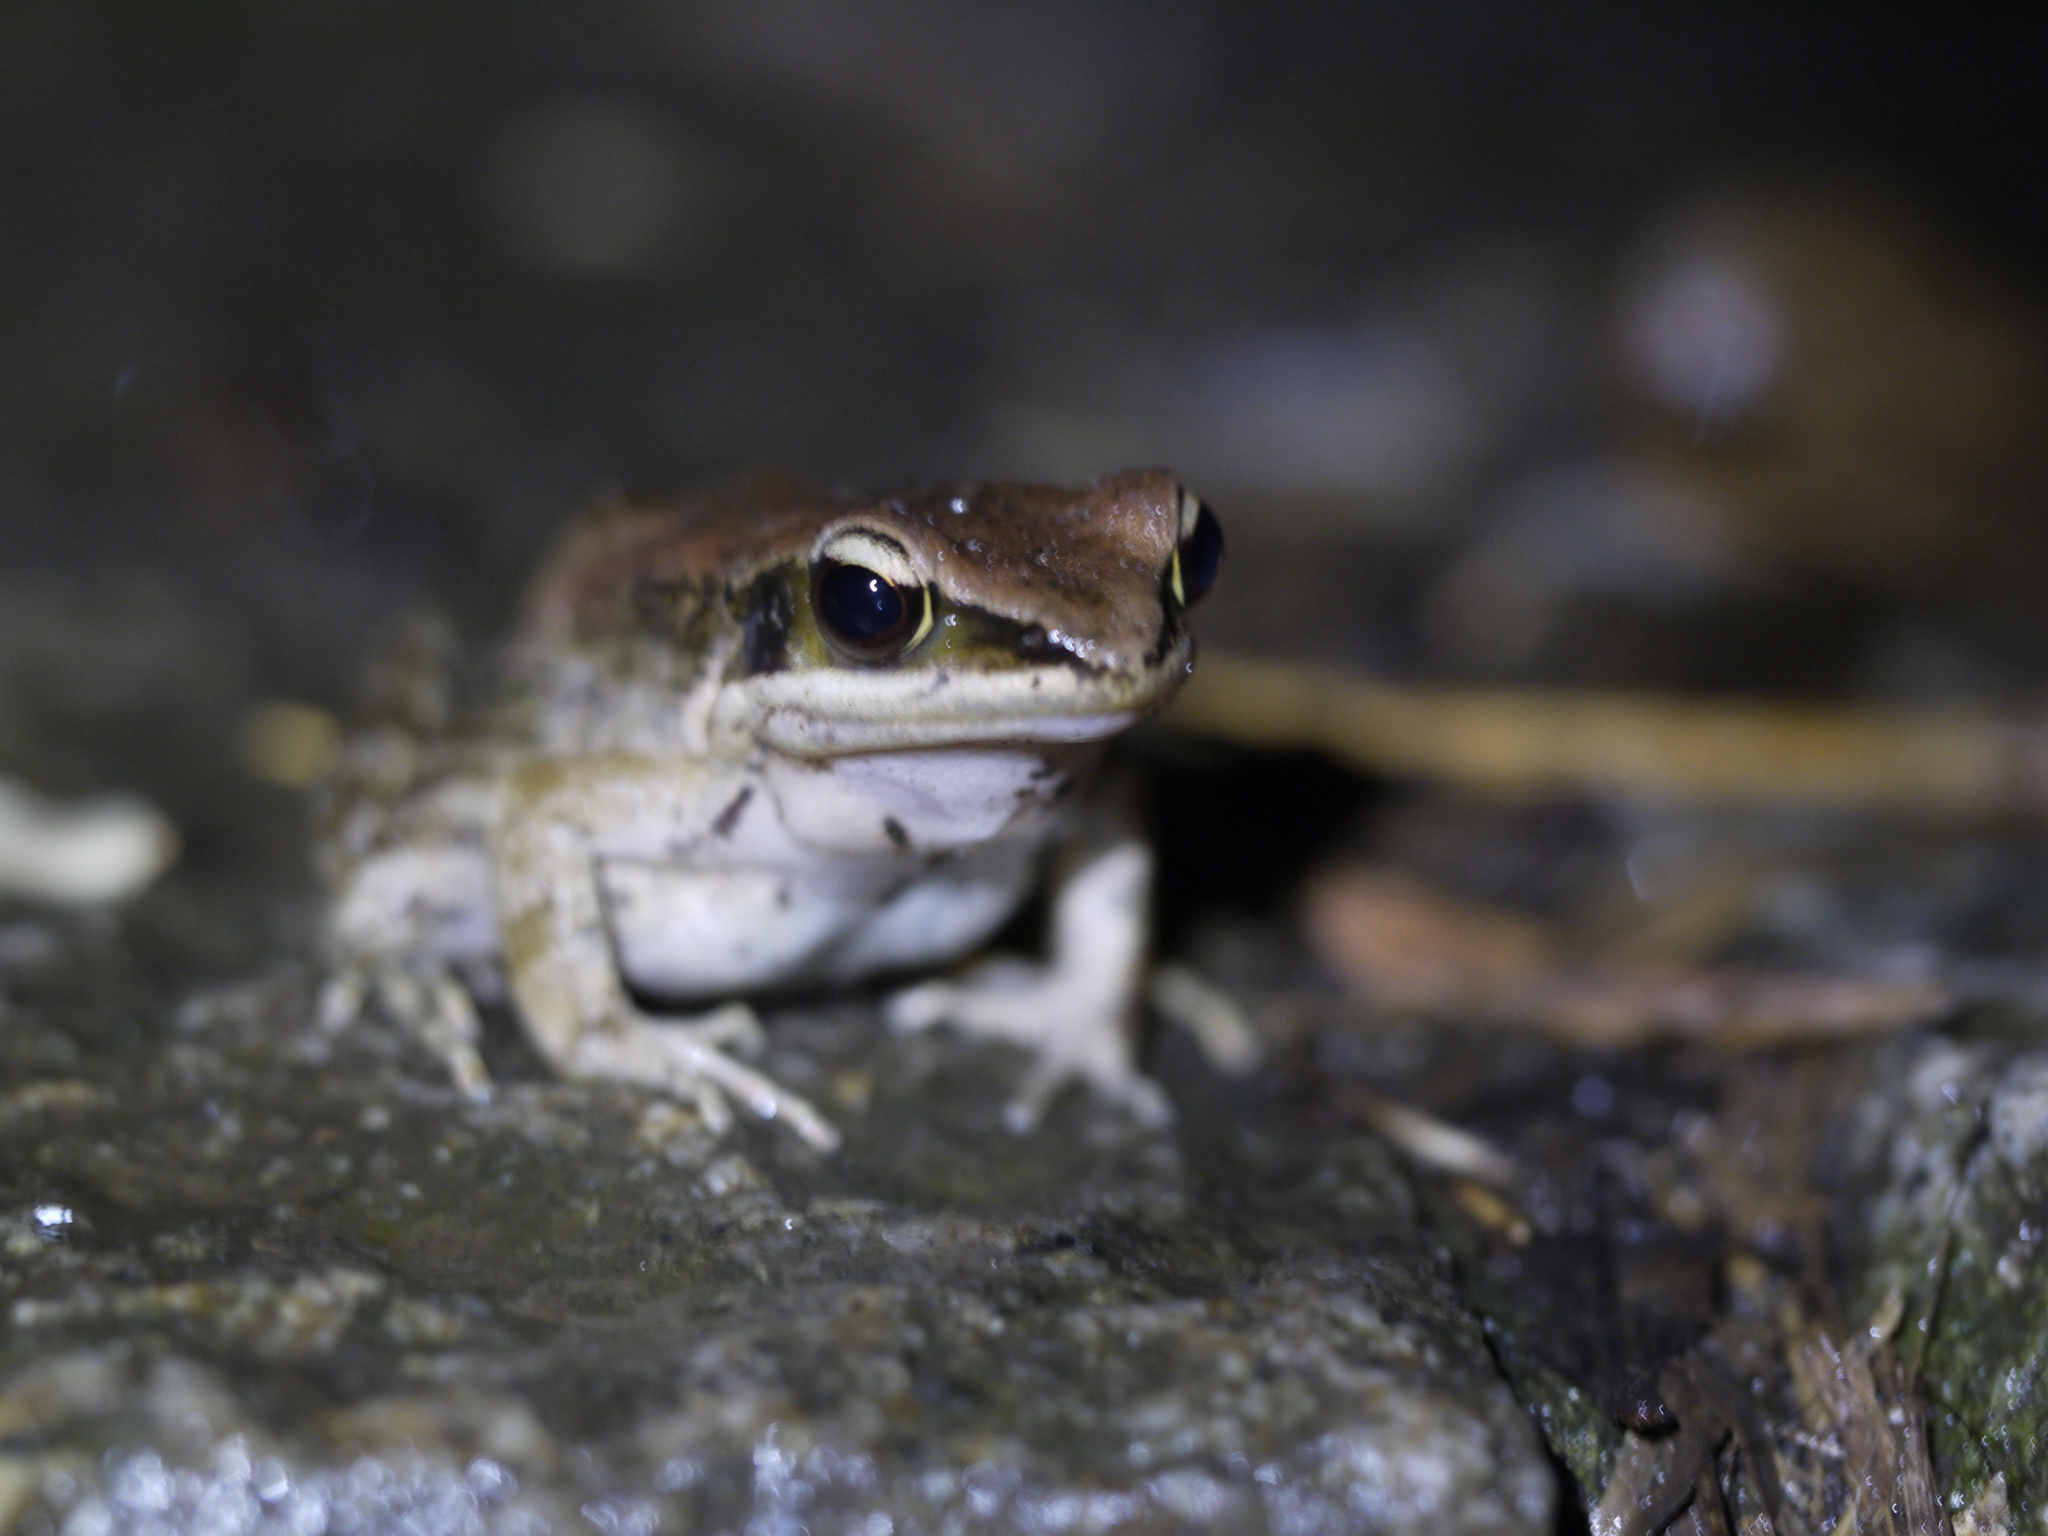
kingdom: Animalia
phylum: Chordata
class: Amphibia
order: Anura
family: Ranidae
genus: Hylarana
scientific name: Hylarana latouchii
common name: Broad-folded frog
